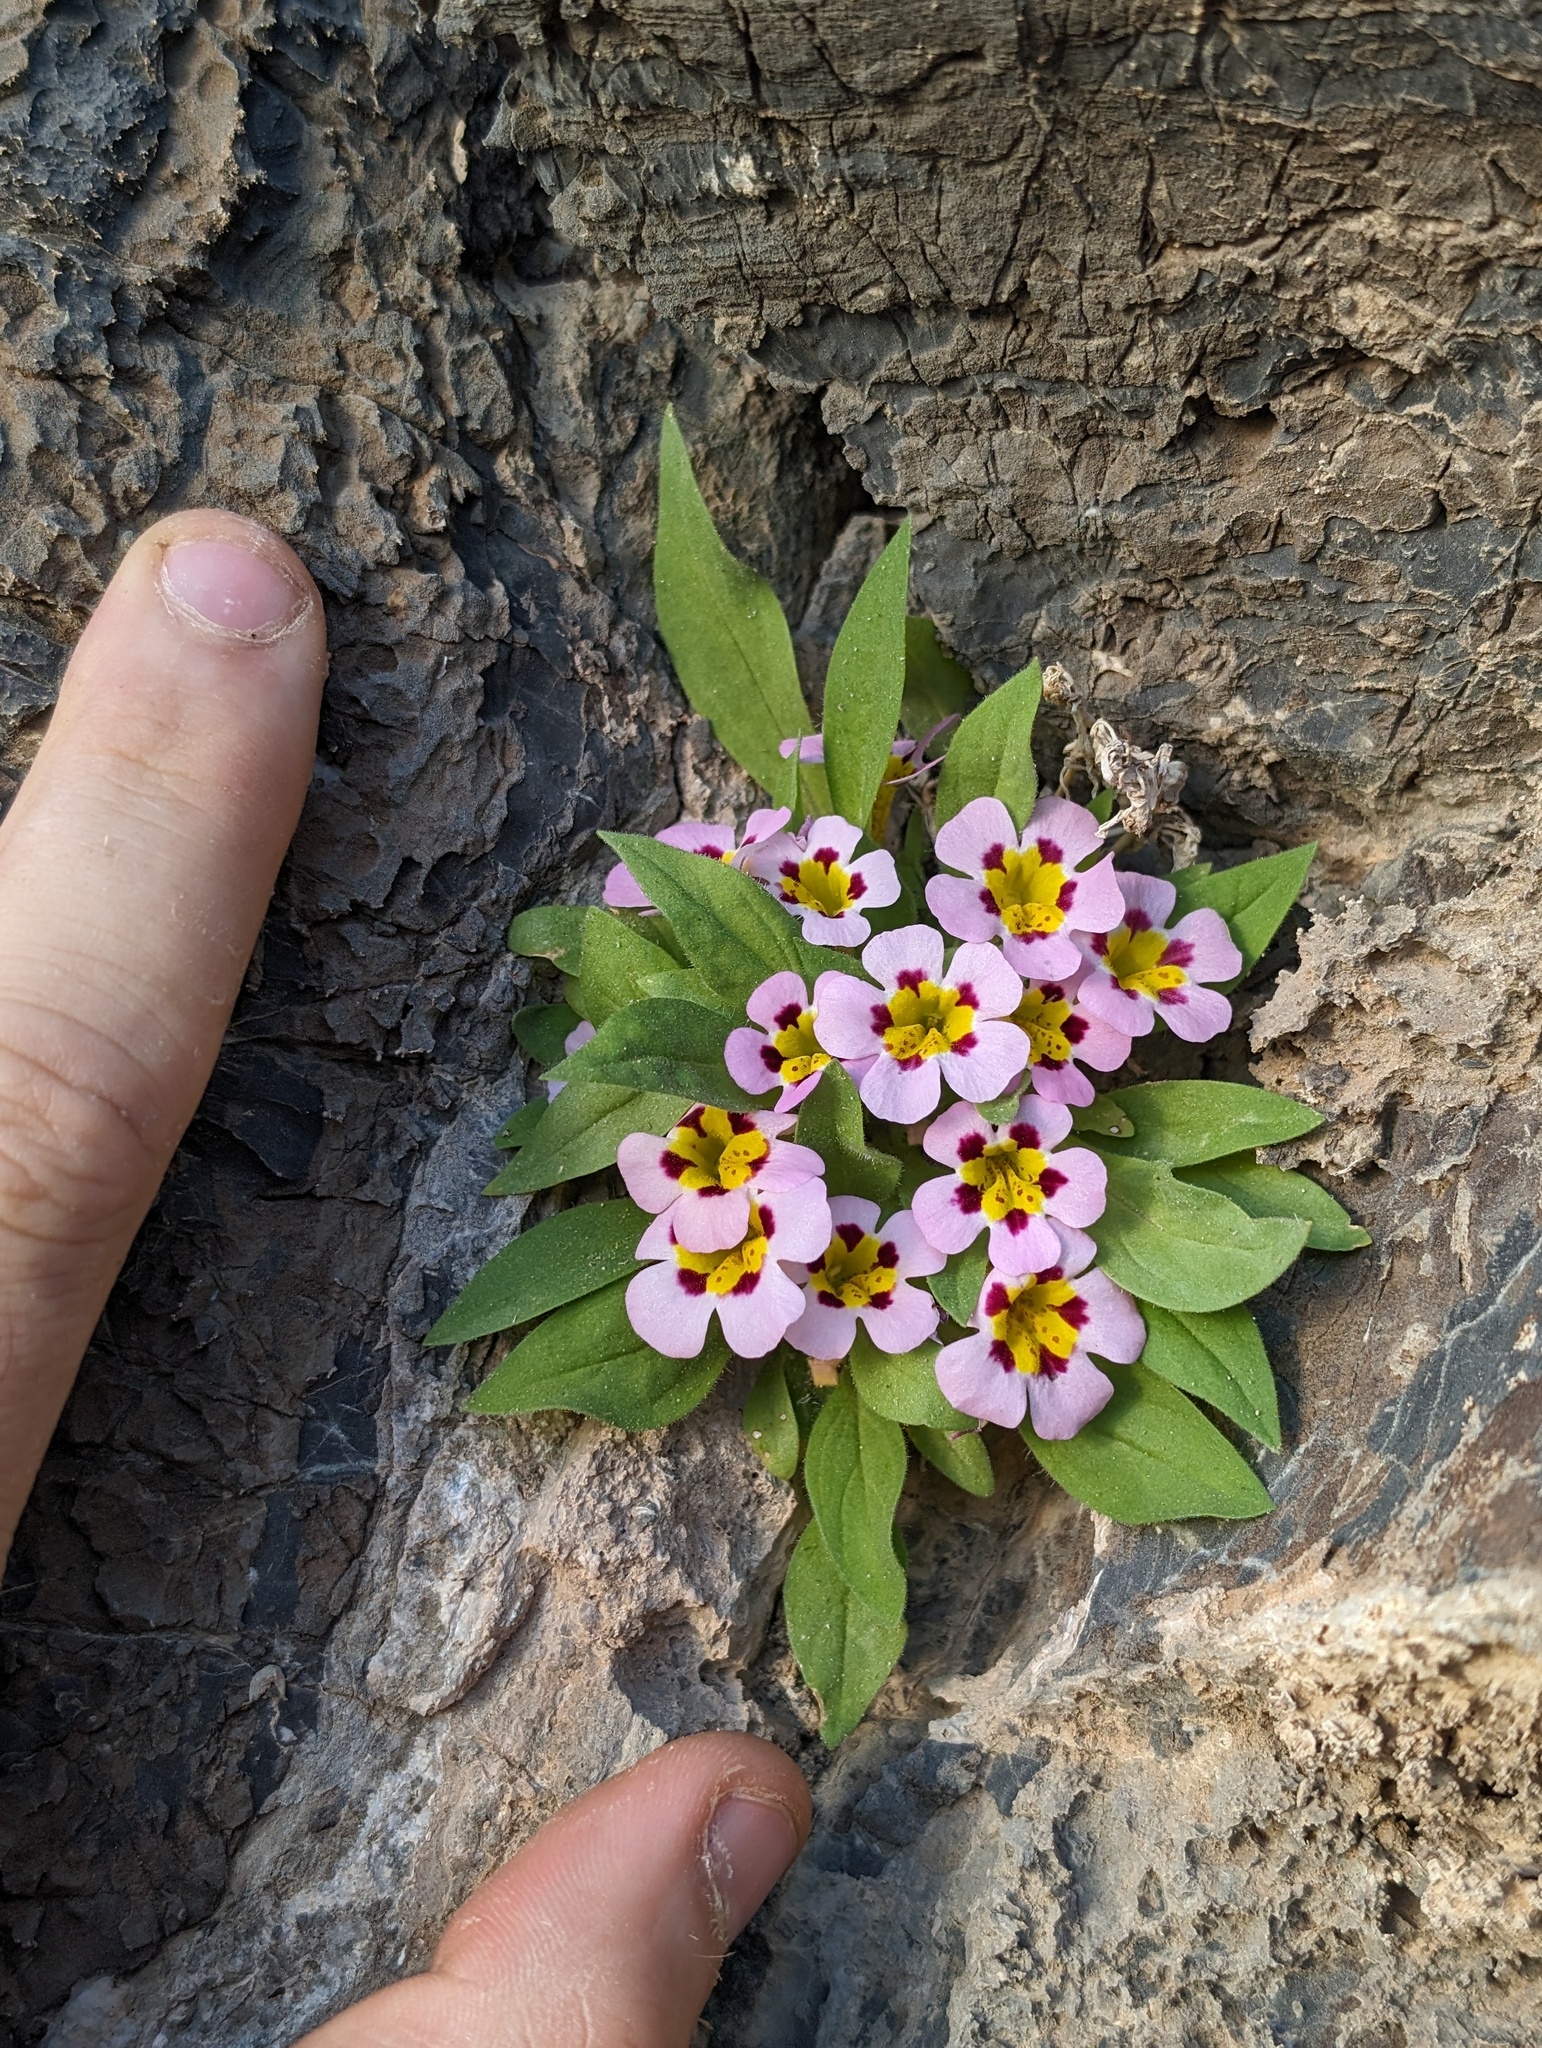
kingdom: Plantae
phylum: Tracheophyta
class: Magnoliopsida
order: Lamiales
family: Phrymaceae
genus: Diplacus
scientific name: Diplacus rupicola
